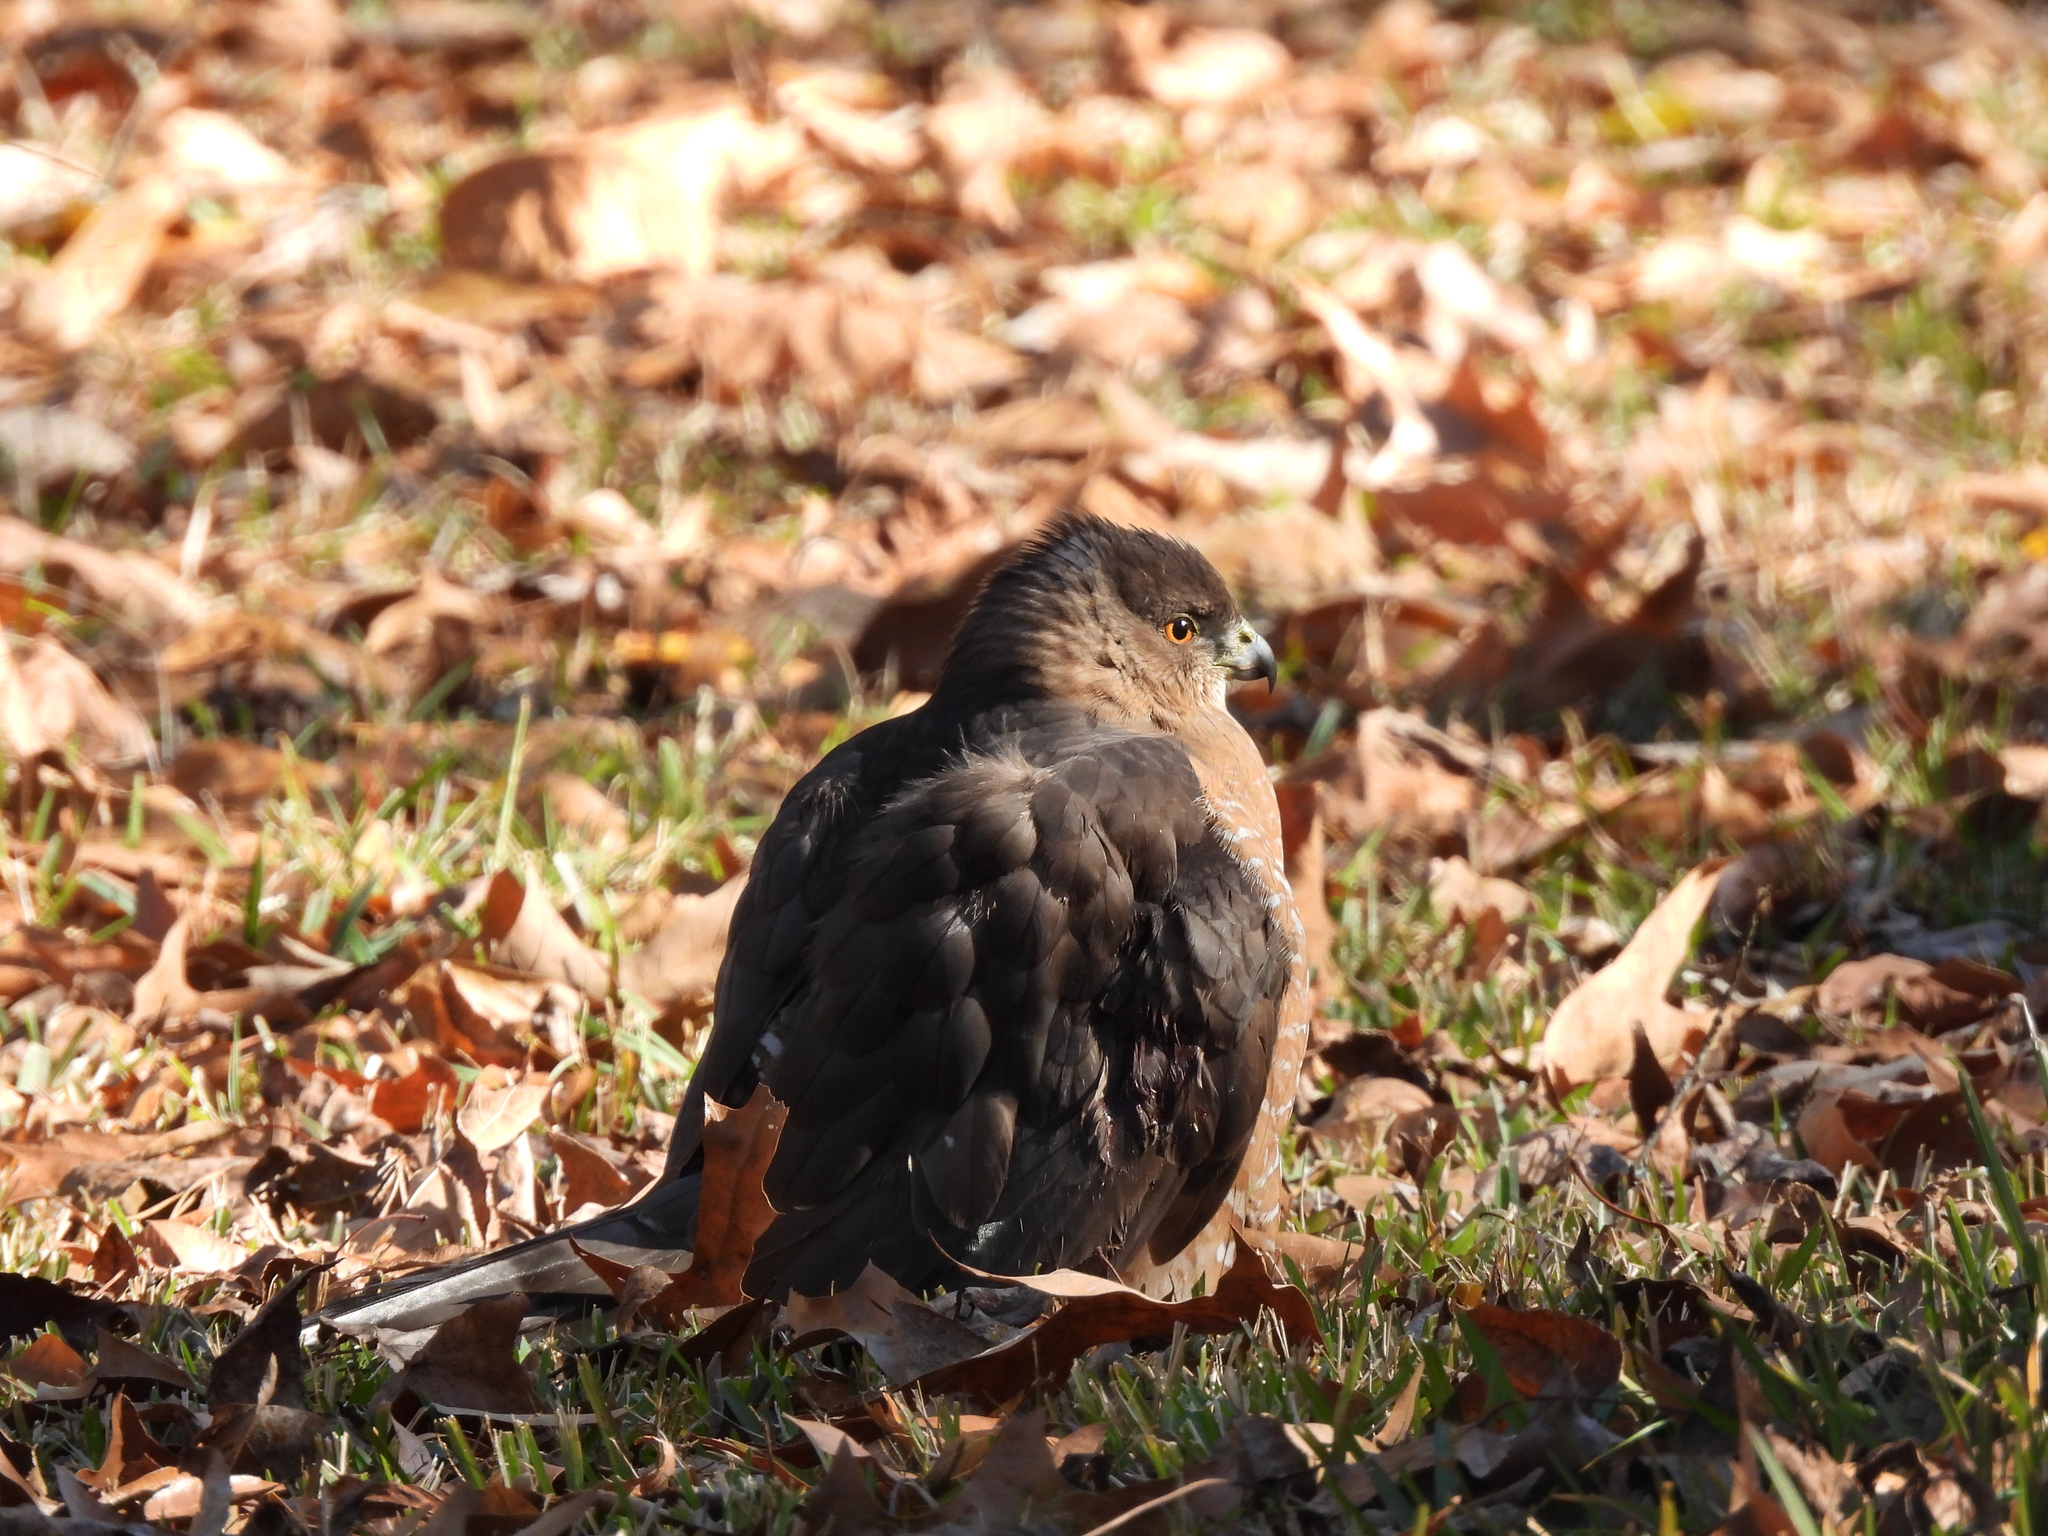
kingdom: Animalia
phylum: Chordata
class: Aves
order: Accipitriformes
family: Accipitridae
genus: Accipiter
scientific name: Accipiter cooperii
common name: Cooper's hawk
